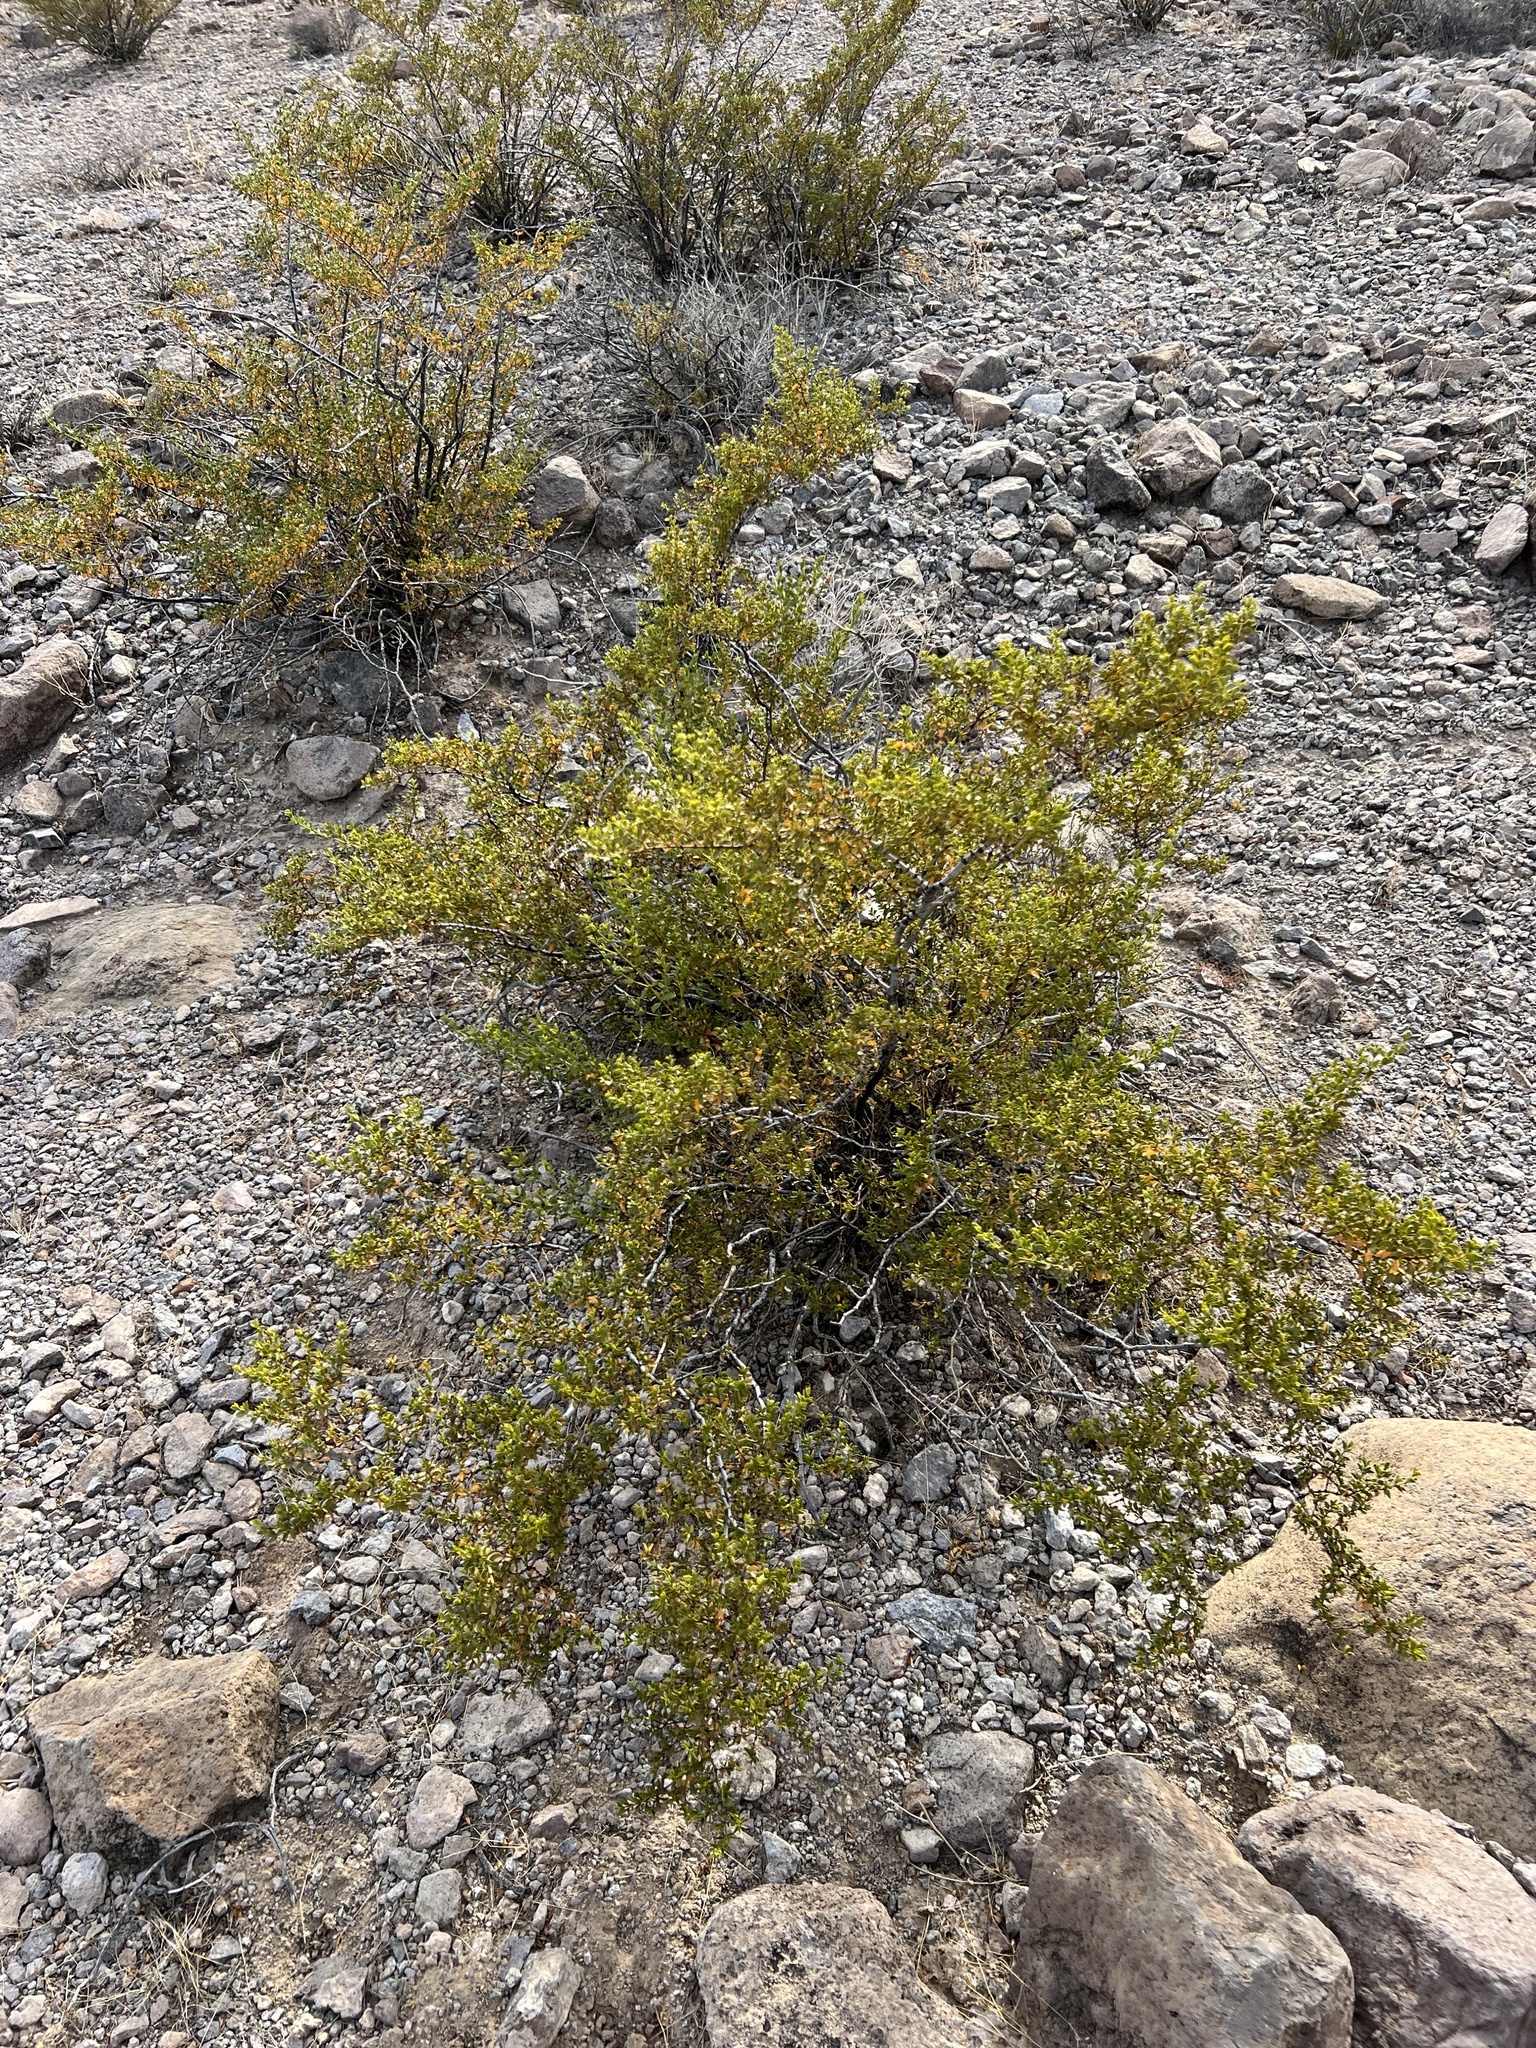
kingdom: Plantae
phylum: Tracheophyta
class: Magnoliopsida
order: Zygophyllales
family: Zygophyllaceae
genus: Larrea
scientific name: Larrea tridentata
